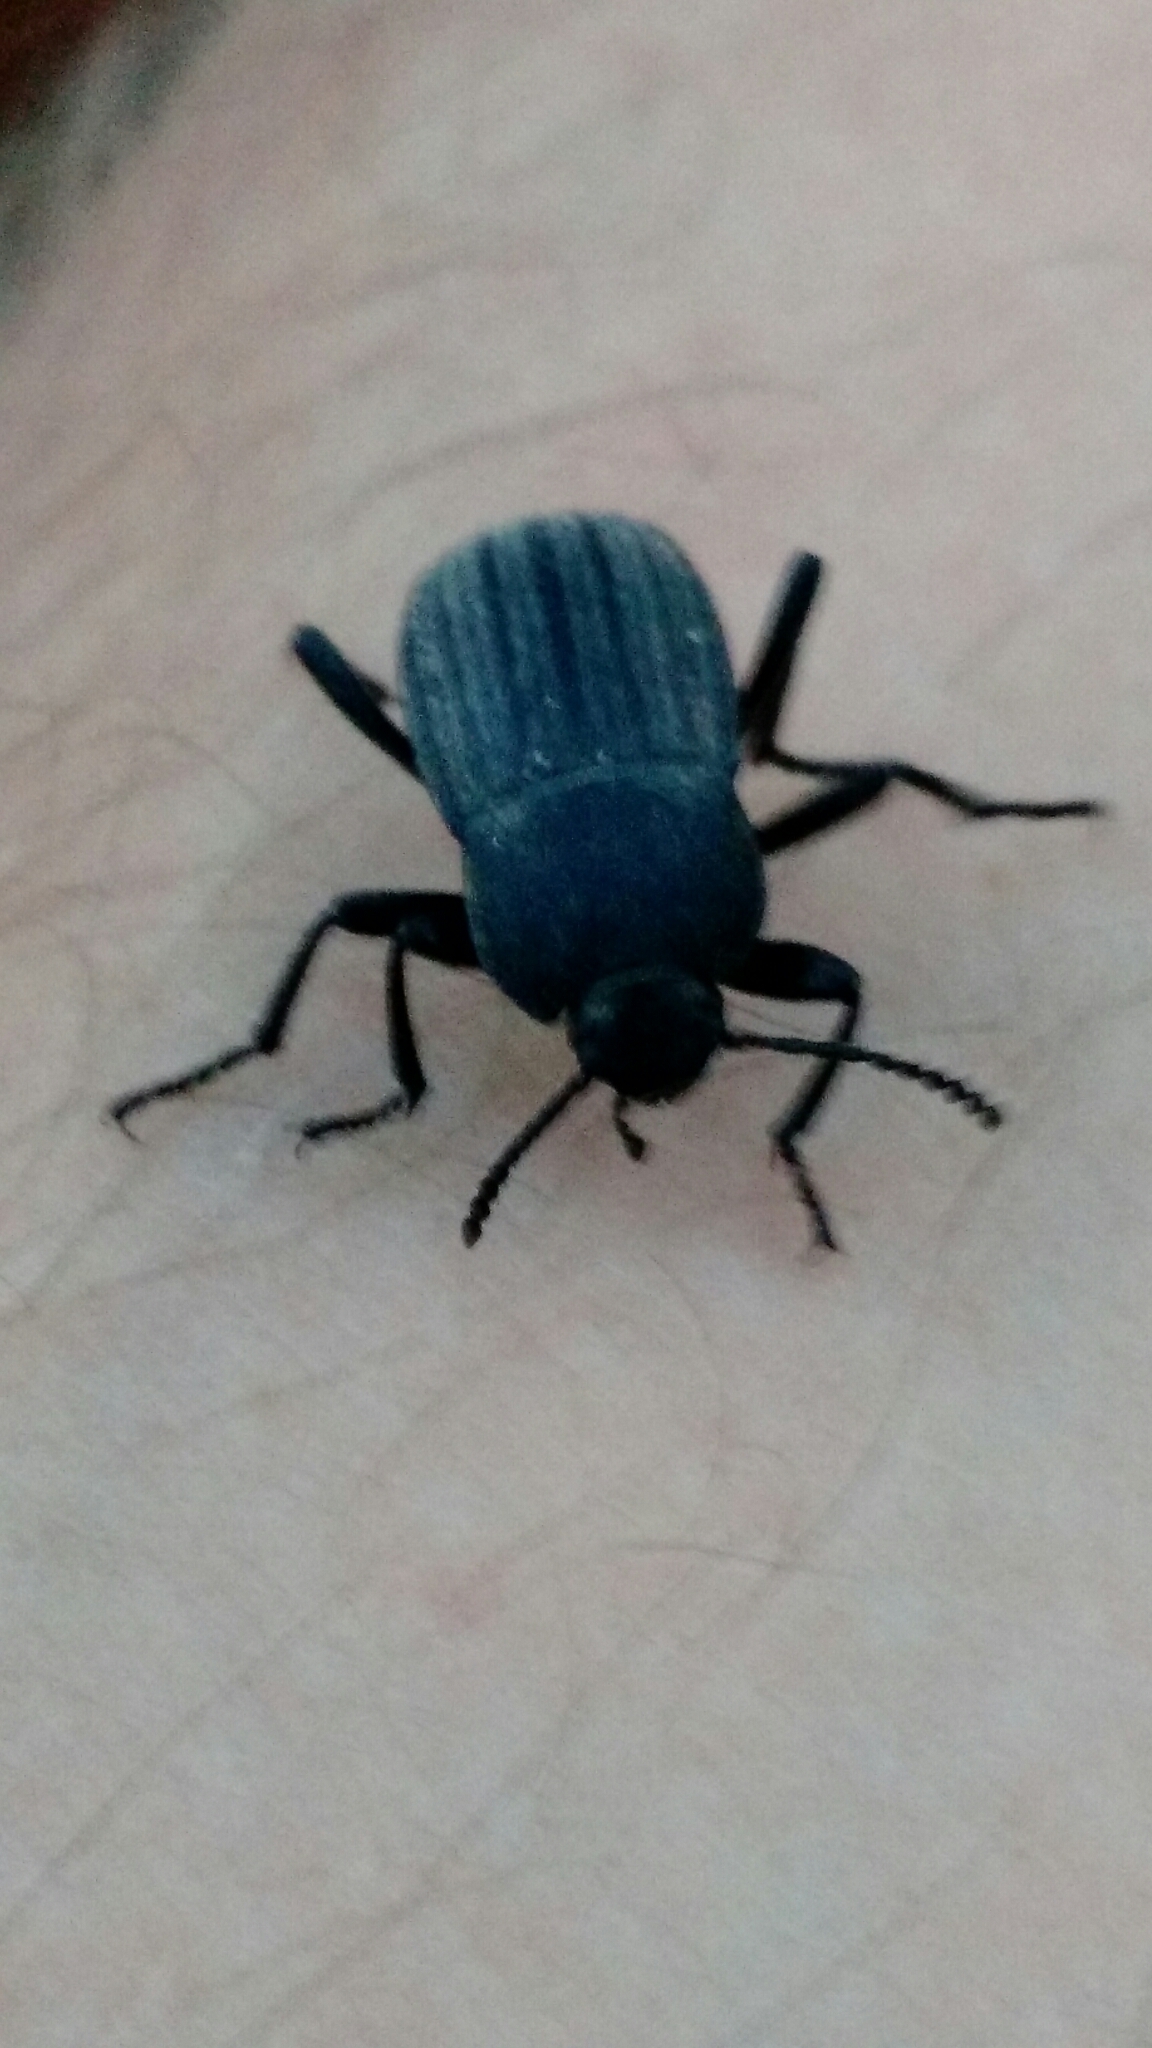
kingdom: Animalia
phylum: Arthropoda
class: Insecta
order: Coleoptera
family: Tenebrionidae
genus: Eleodes
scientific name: Eleodes tricostata
